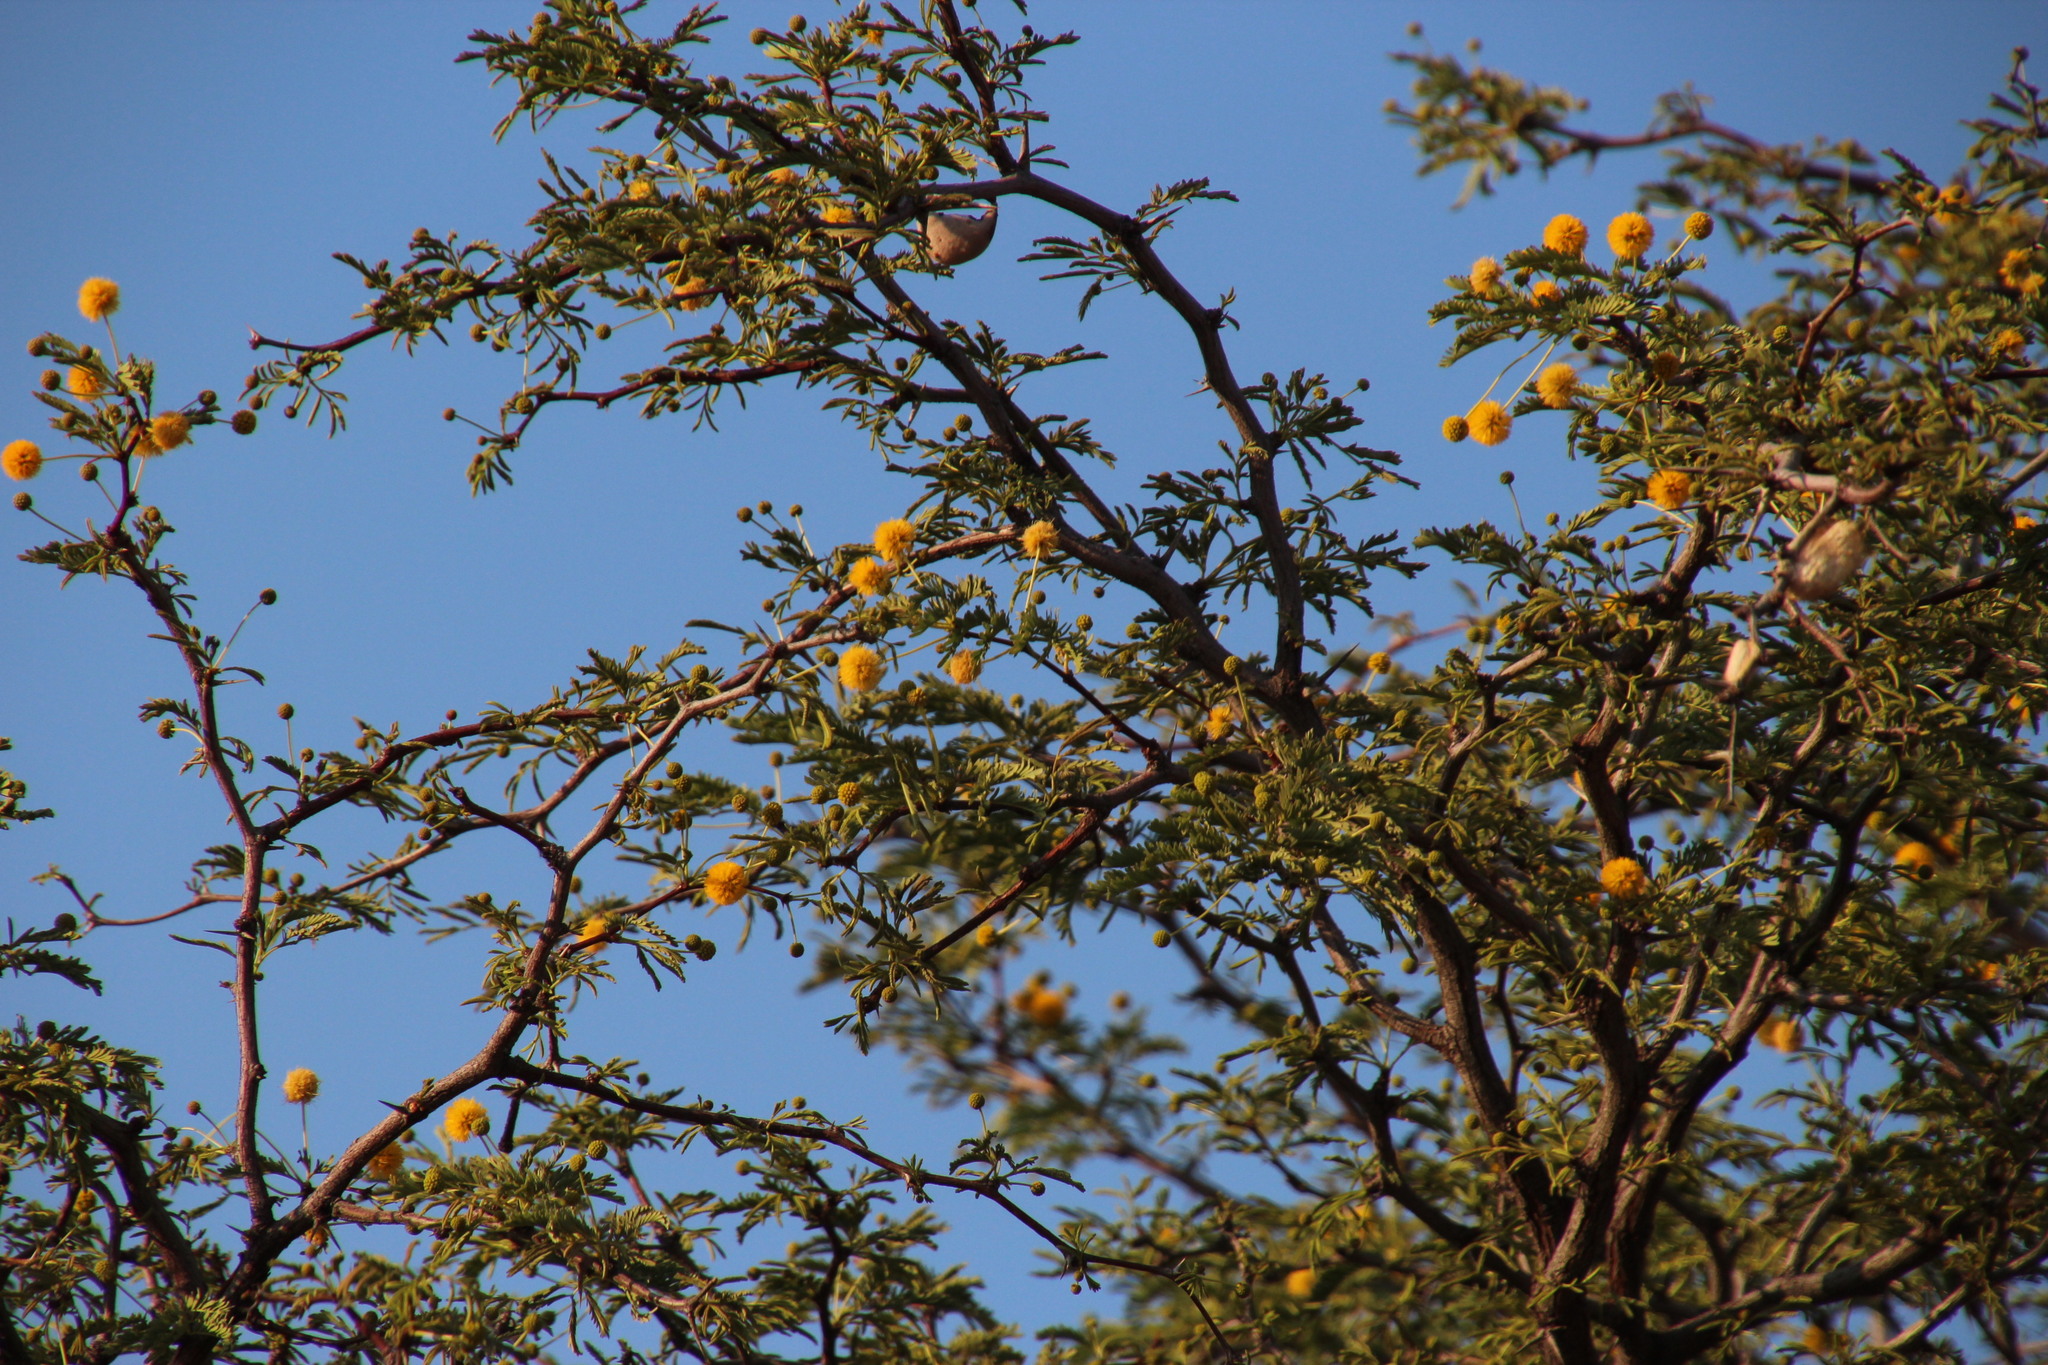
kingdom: Plantae
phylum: Tracheophyta
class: Magnoliopsida
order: Fabales
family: Fabaceae
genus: Vachellia
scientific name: Vachellia erioloba
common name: Camel thorn
